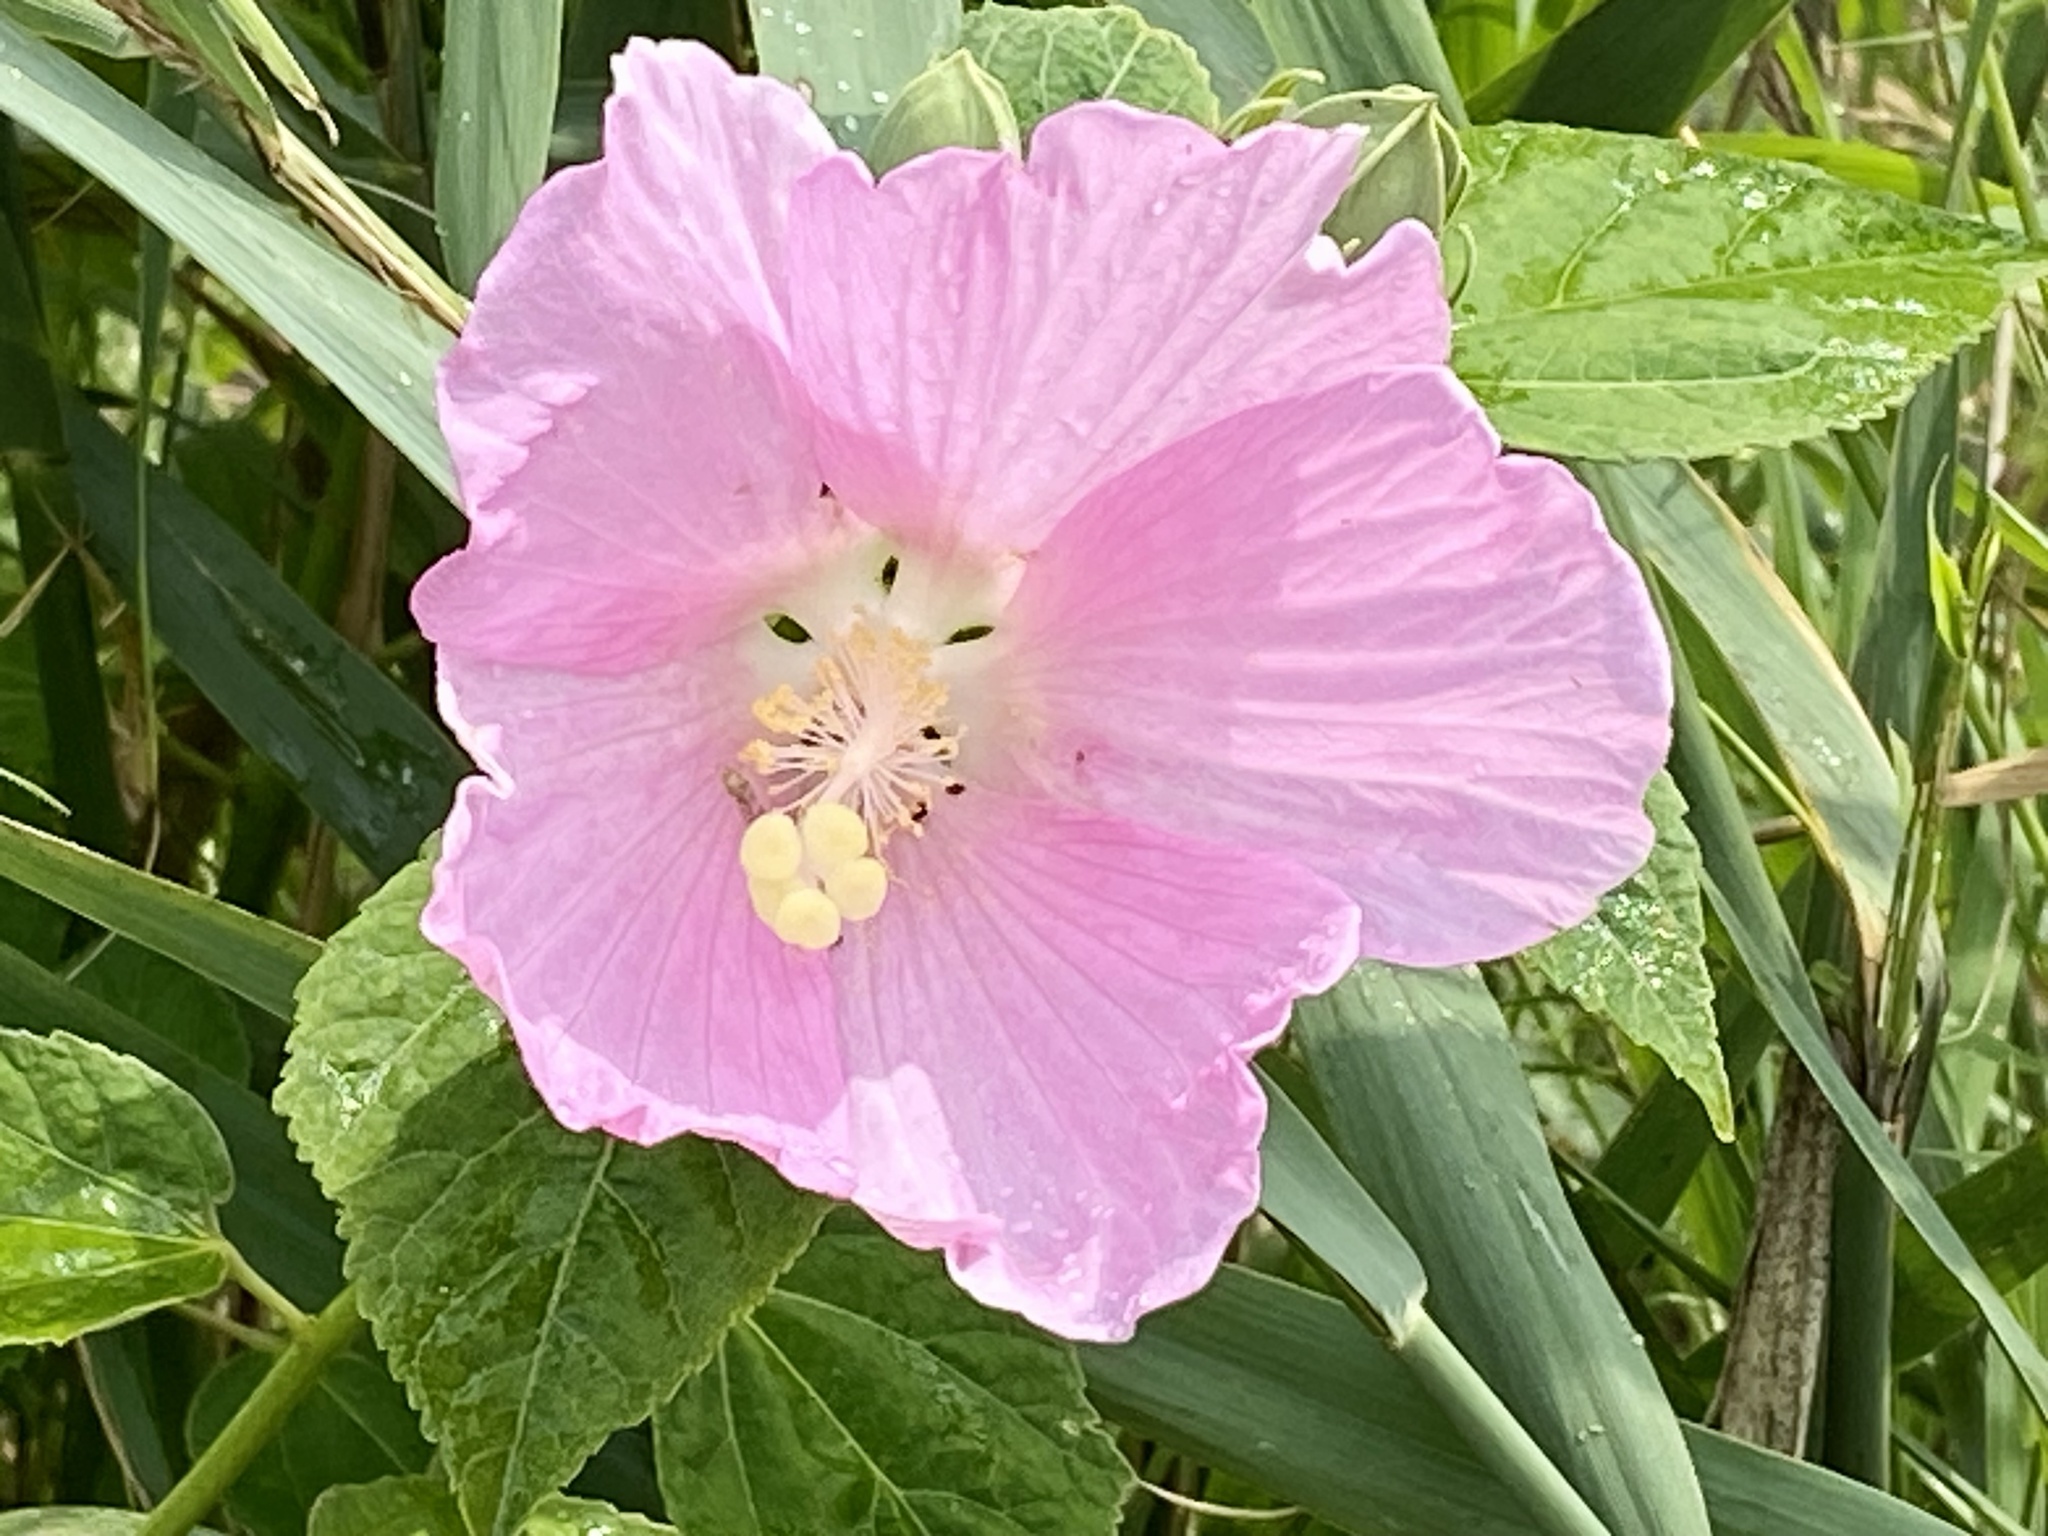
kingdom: Plantae
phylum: Tracheophyta
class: Magnoliopsida
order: Malvales
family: Malvaceae
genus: Hibiscus
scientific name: Hibiscus moscheutos
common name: Common rose-mallow
